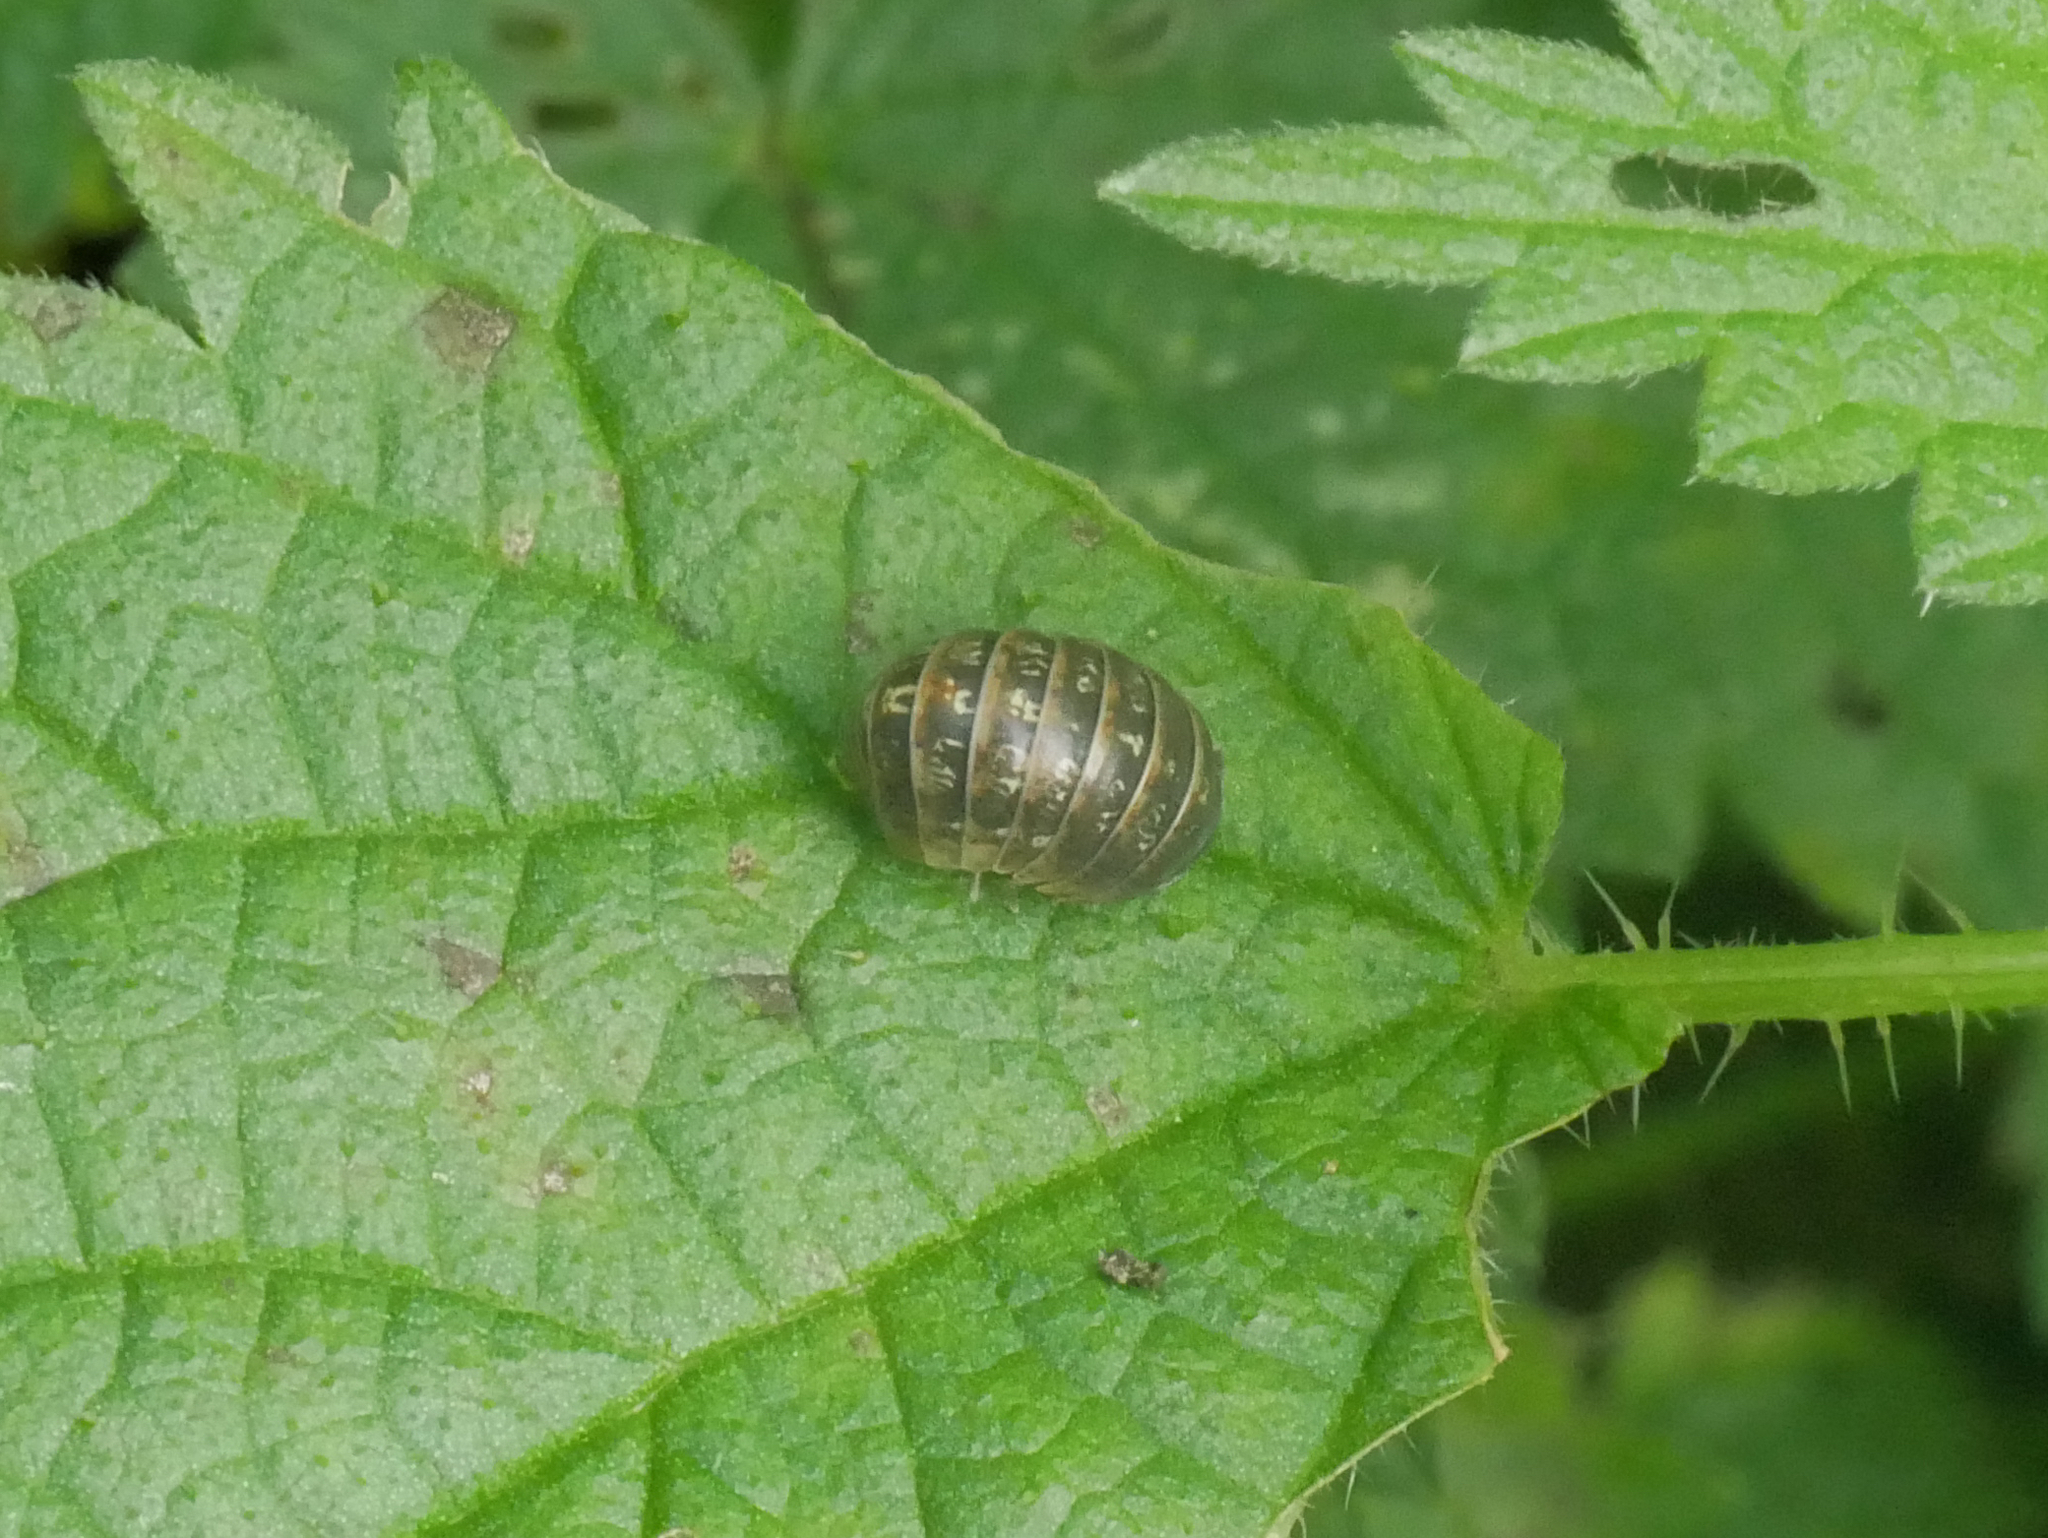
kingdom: Animalia
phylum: Arthropoda
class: Malacostraca
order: Isopoda
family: Armadillidiidae
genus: Armadillidium
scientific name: Armadillidium vulgare
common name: Common pill woodlouse
